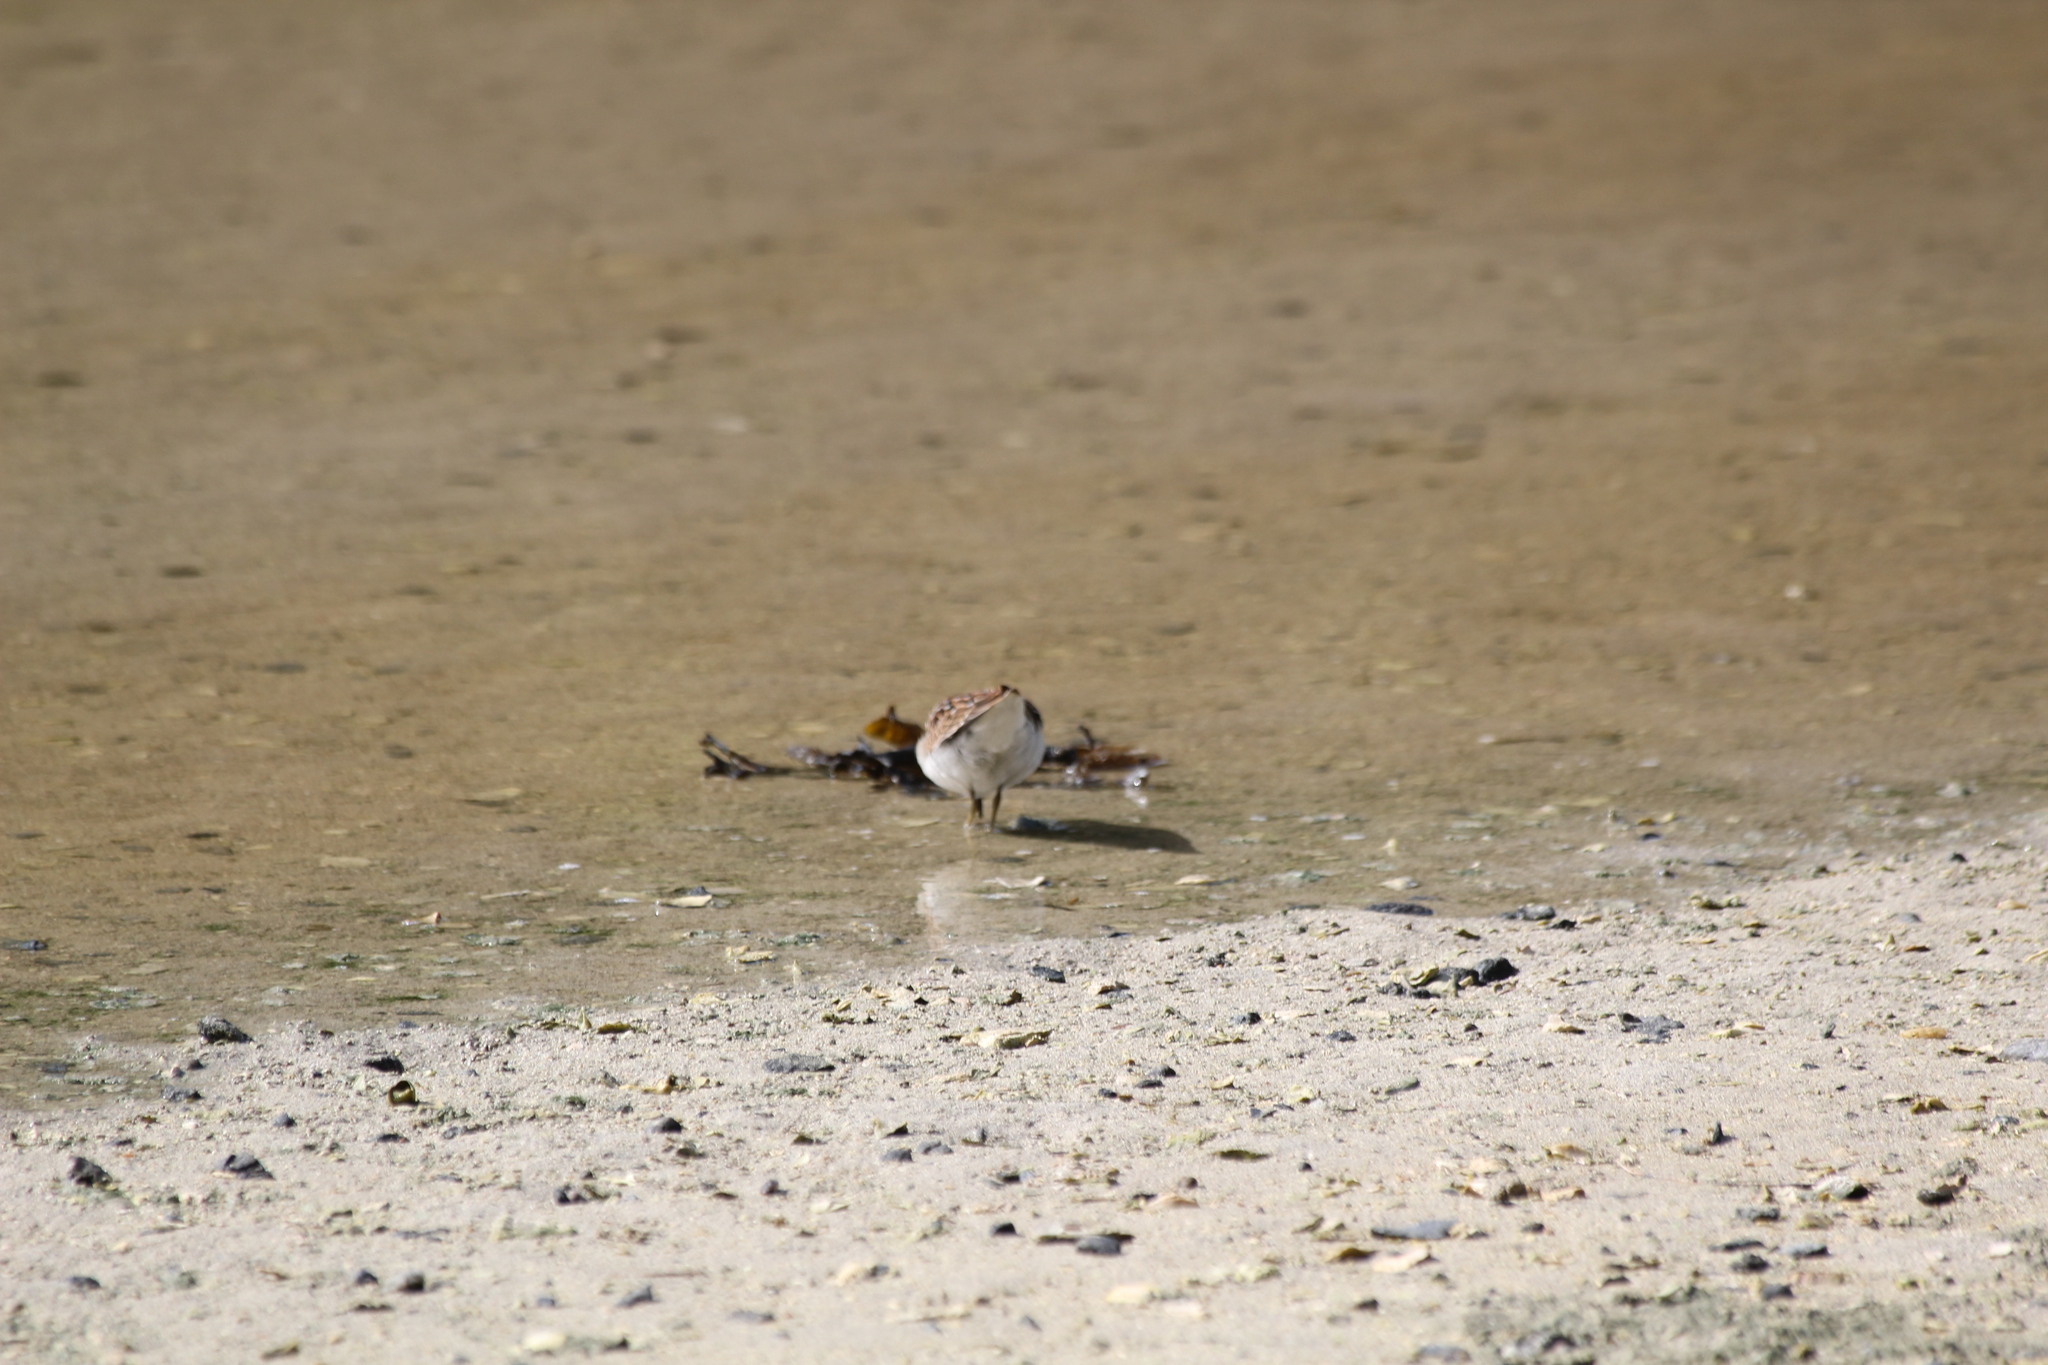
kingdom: Animalia
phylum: Chordata
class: Aves
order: Charadriiformes
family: Scolopacidae
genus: Calidris
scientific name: Calidris minutilla
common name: Least sandpiper
